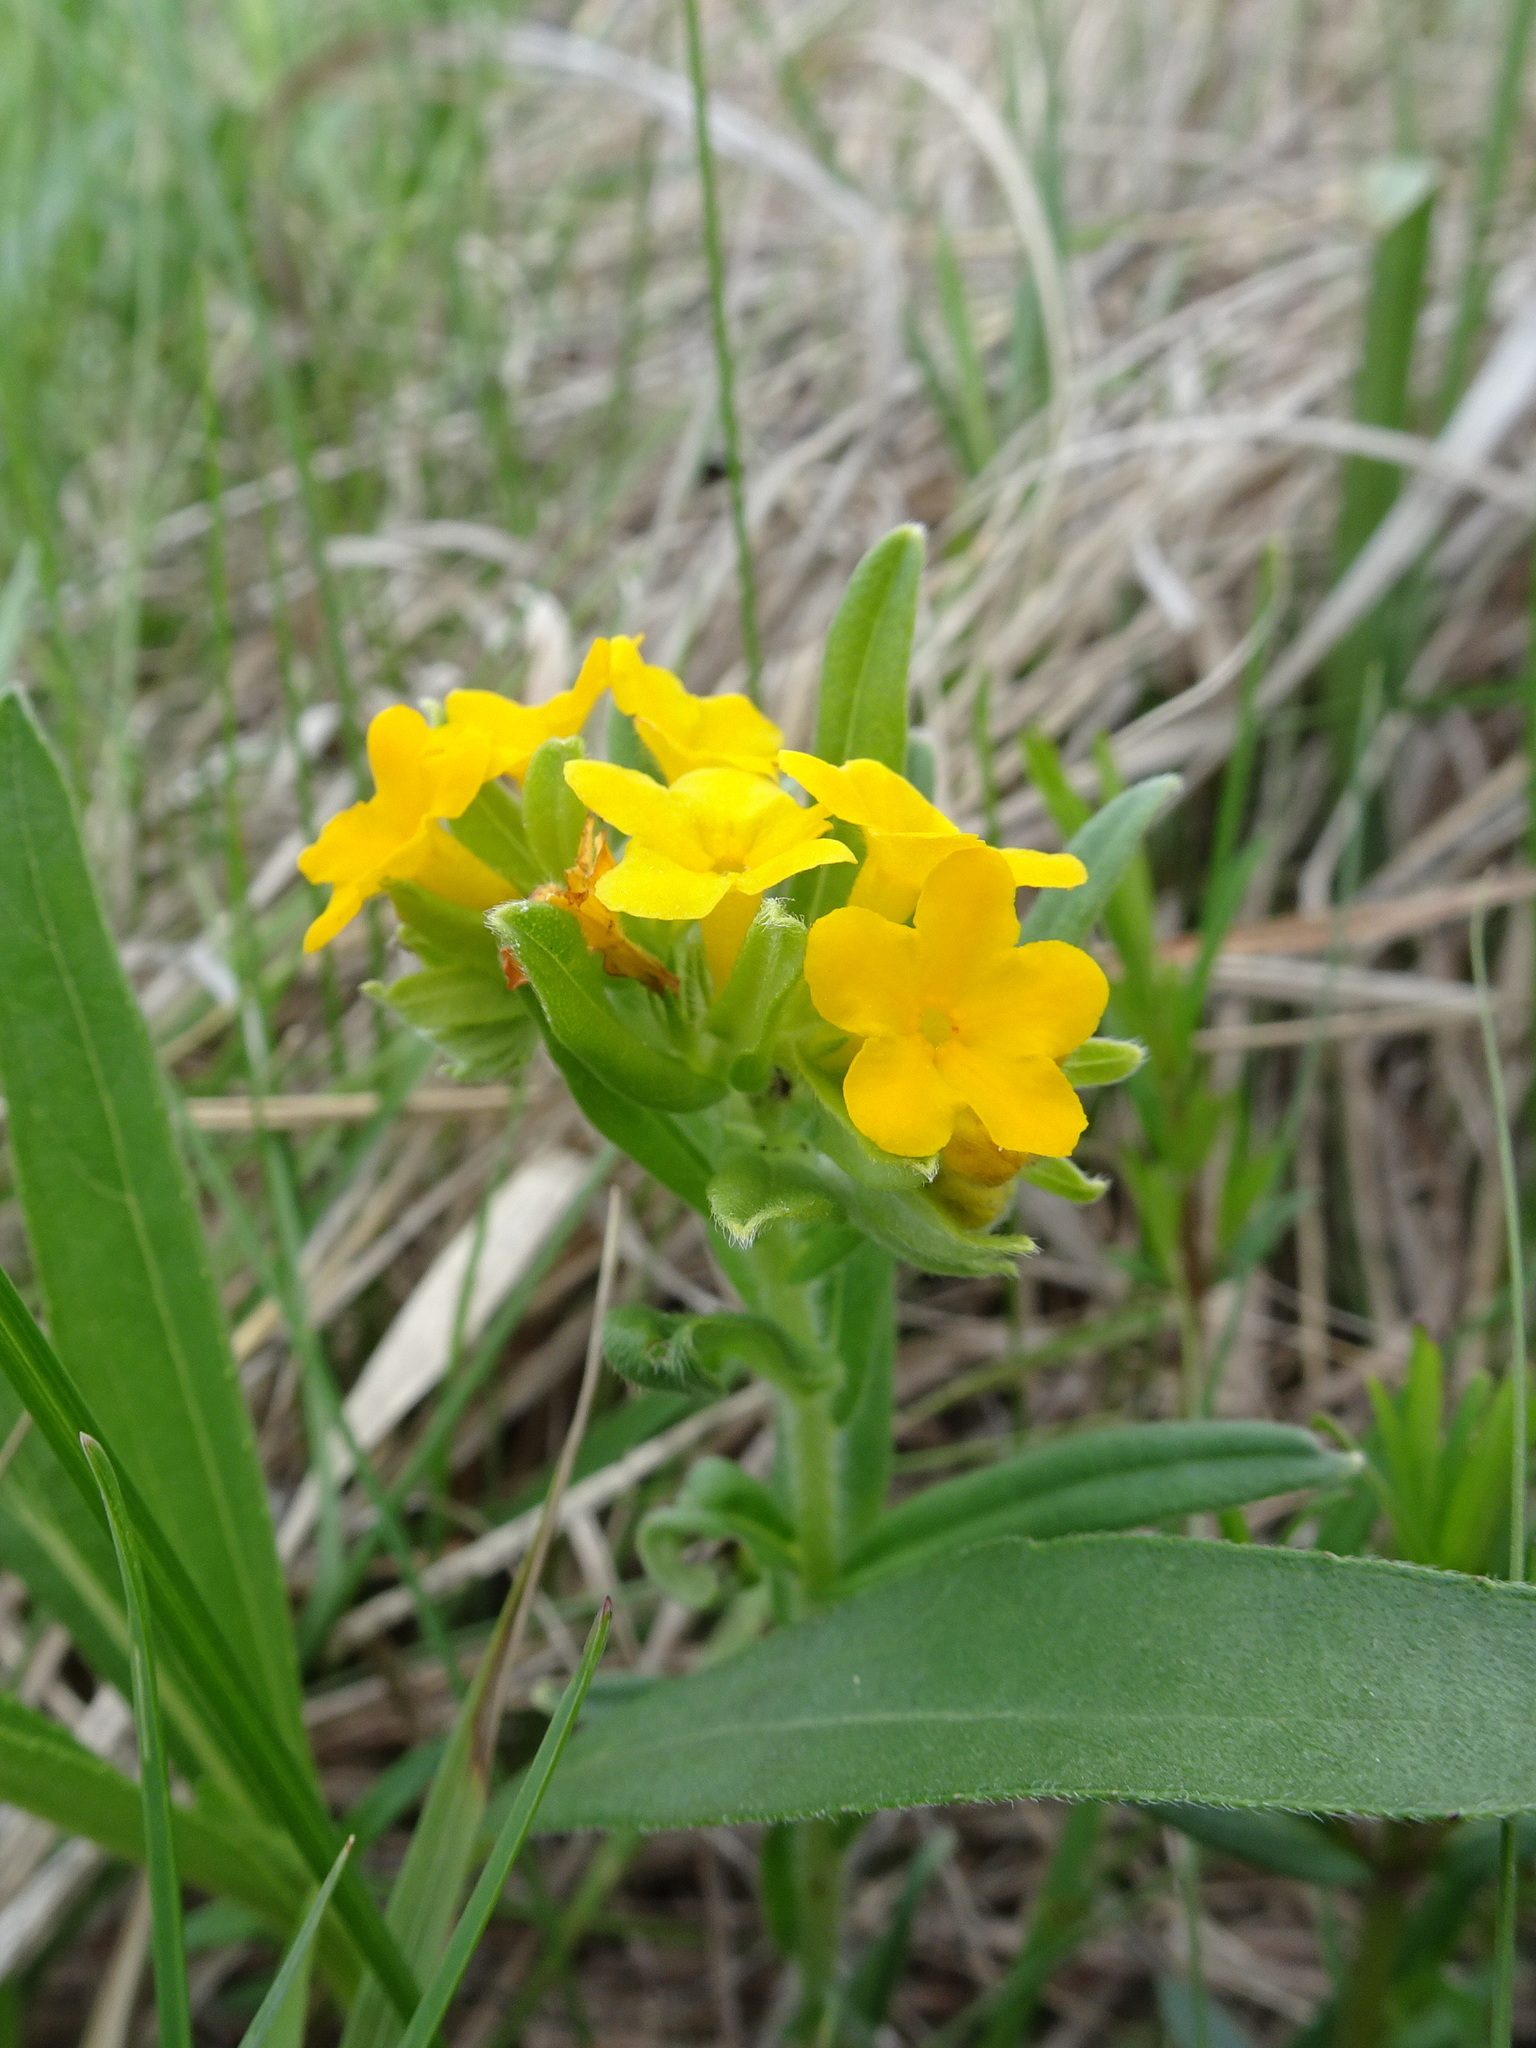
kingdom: Plantae
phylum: Tracheophyta
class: Magnoliopsida
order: Boraginales
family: Boraginaceae
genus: Lithospermum
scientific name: Lithospermum canescens
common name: Hoary puccoon
